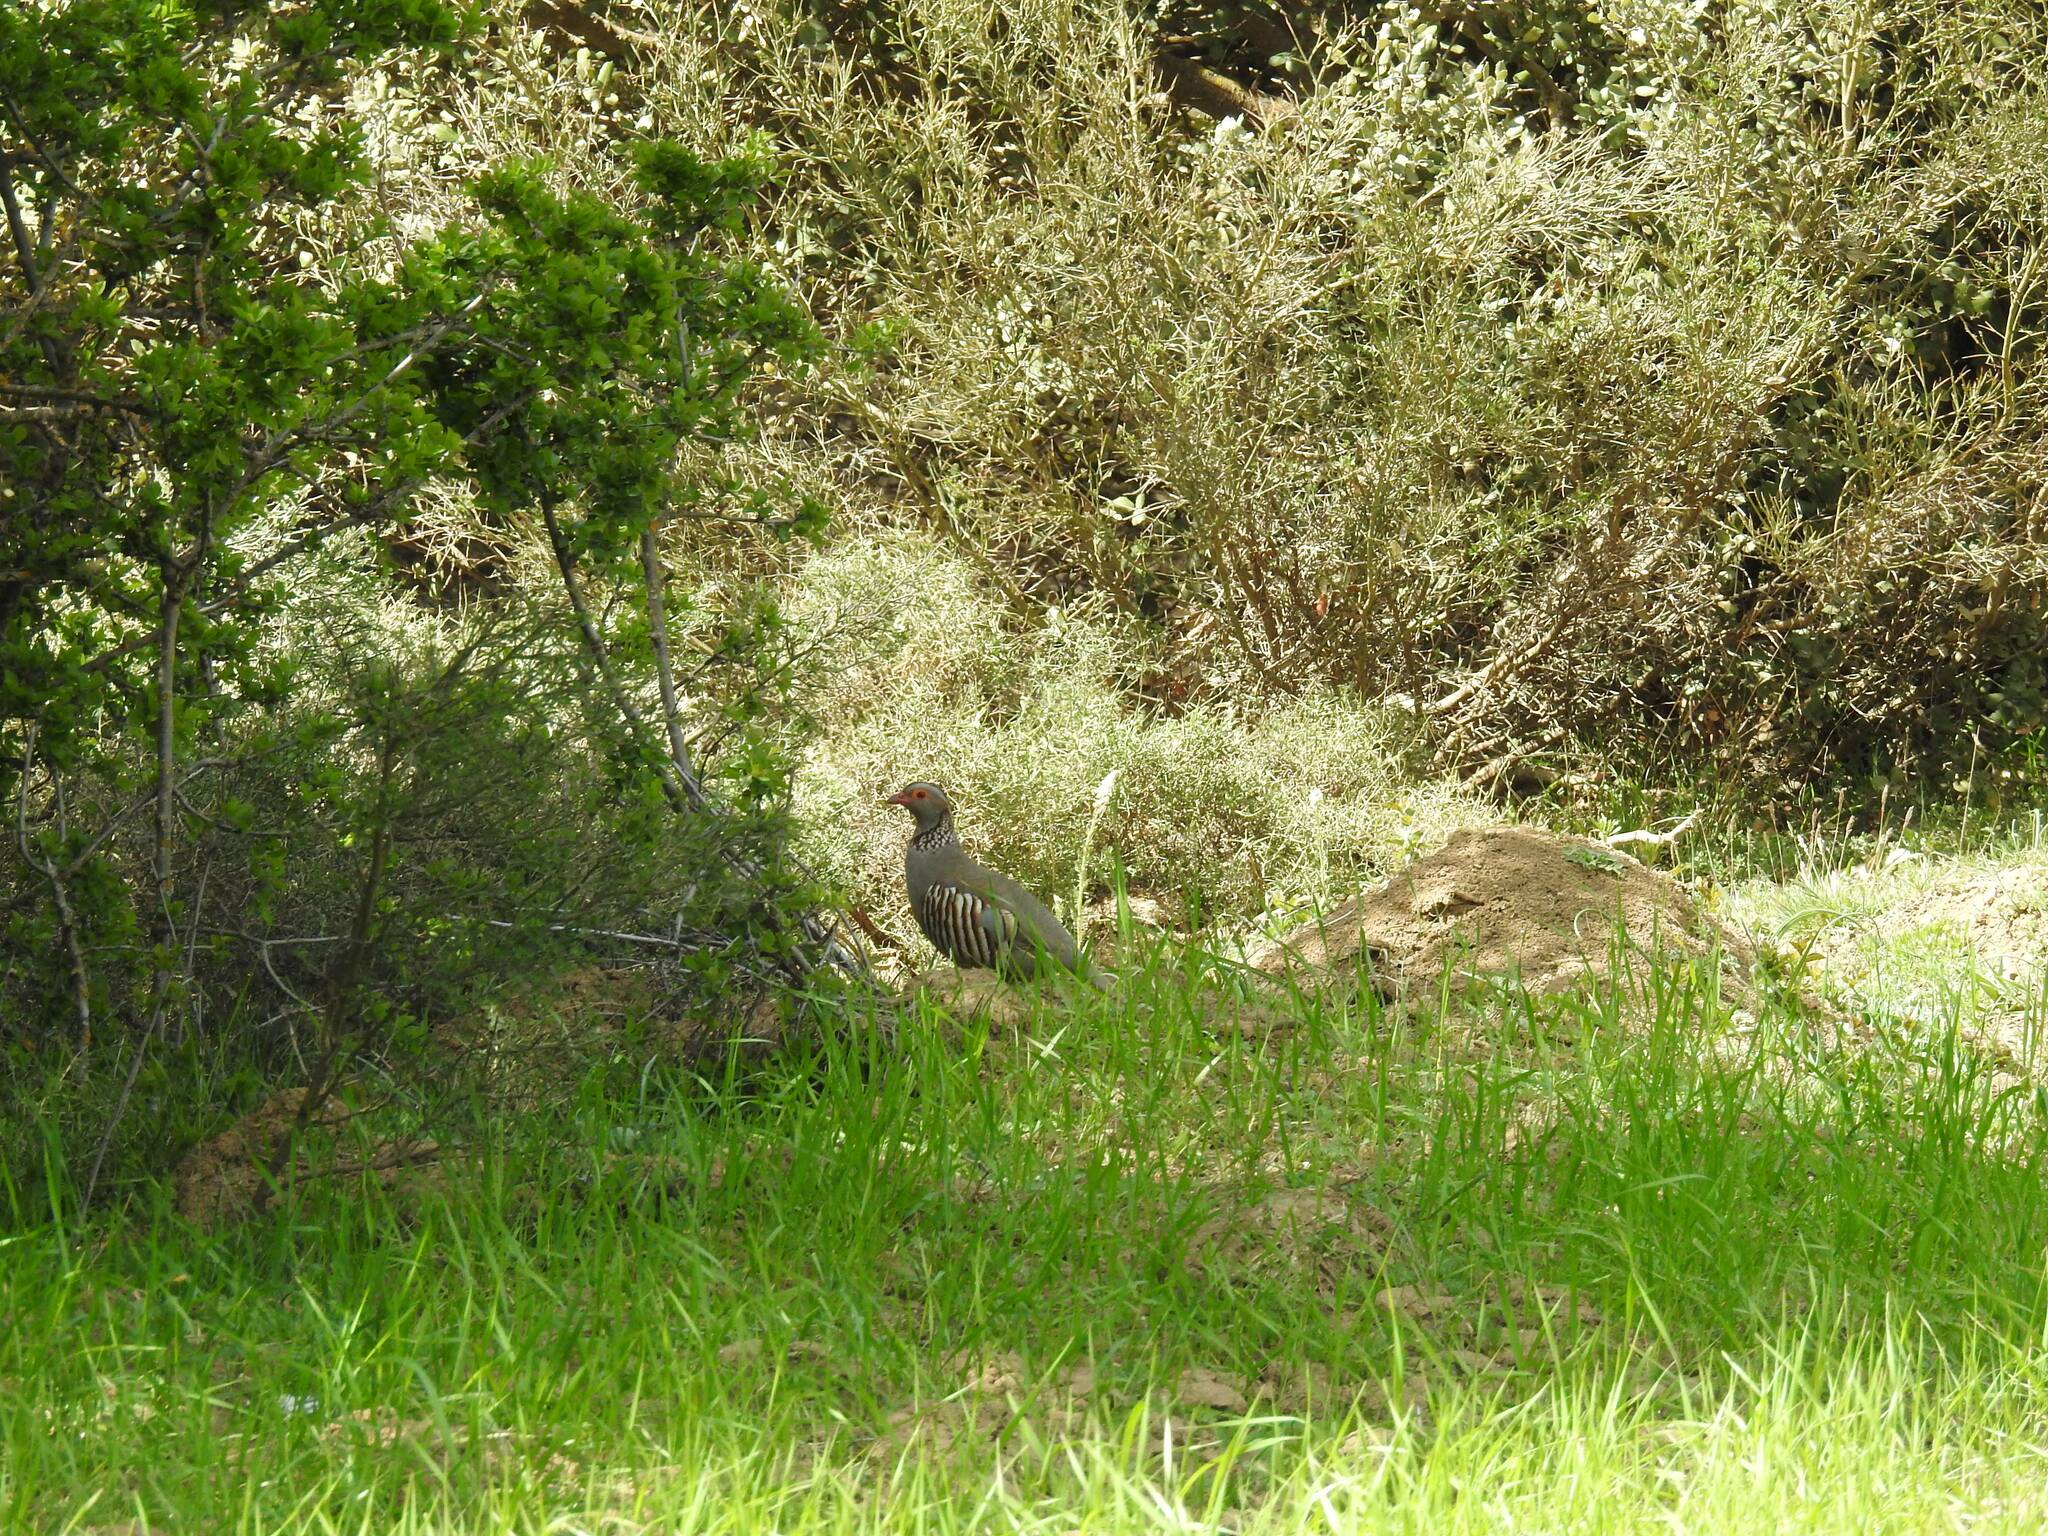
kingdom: Animalia
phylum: Chordata
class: Aves
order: Galliformes
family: Phasianidae
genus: Alectoris
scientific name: Alectoris barbara
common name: Barbary partridge
